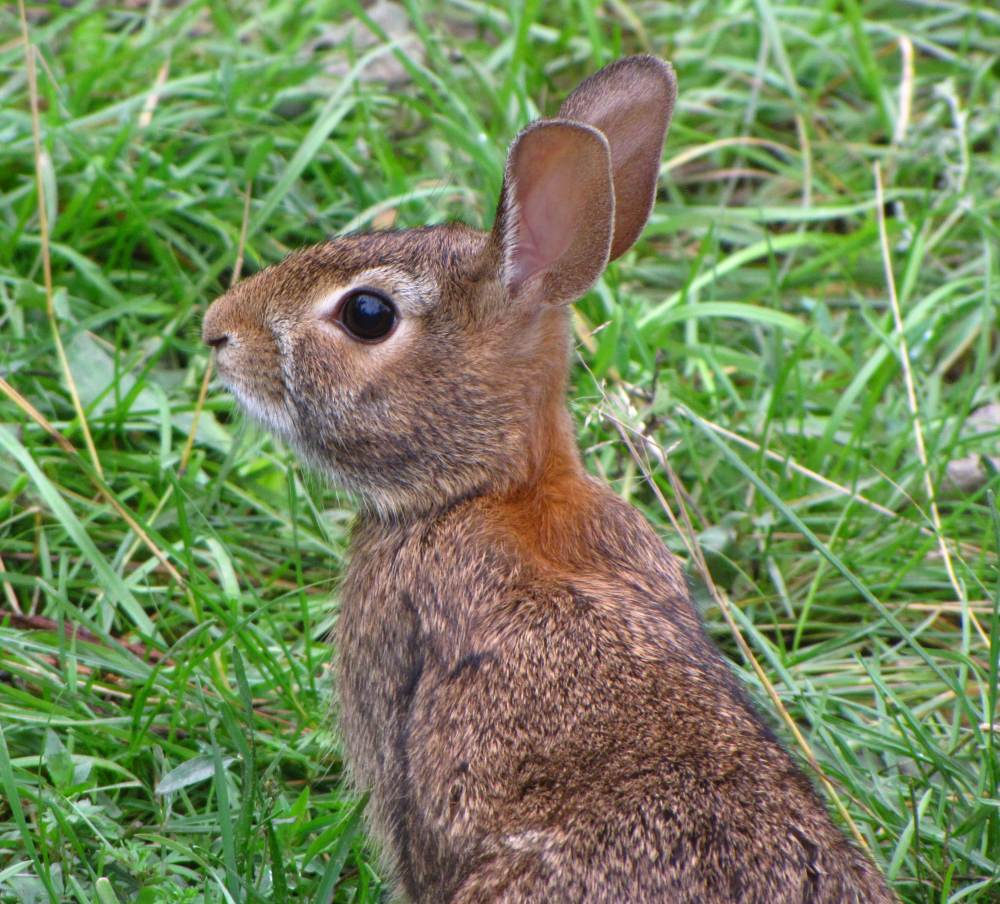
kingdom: Animalia
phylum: Chordata
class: Mammalia
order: Lagomorpha
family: Leporidae
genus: Sylvilagus
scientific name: Sylvilagus floridanus
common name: Eastern cottontail
